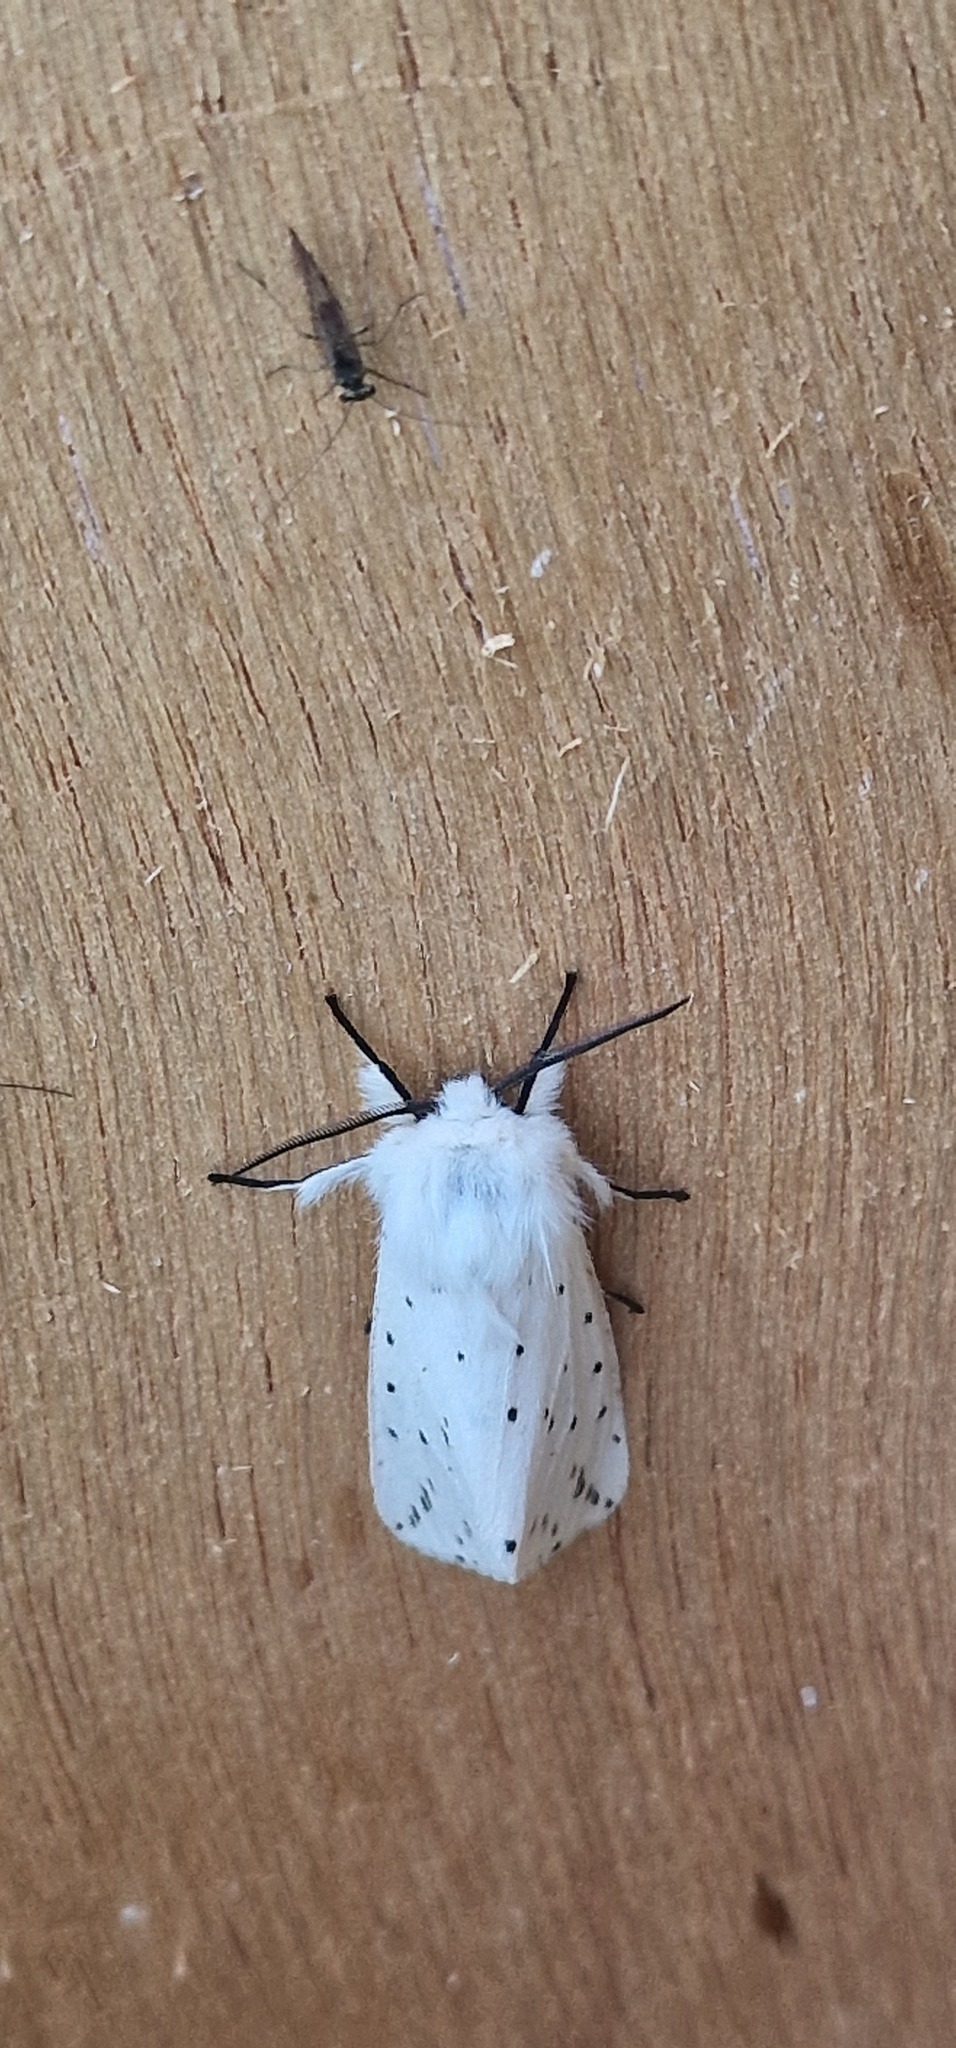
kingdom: Animalia
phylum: Arthropoda
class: Insecta
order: Lepidoptera
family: Erebidae
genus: Spilosoma
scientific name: Spilosoma lubricipeda
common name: White ermine
